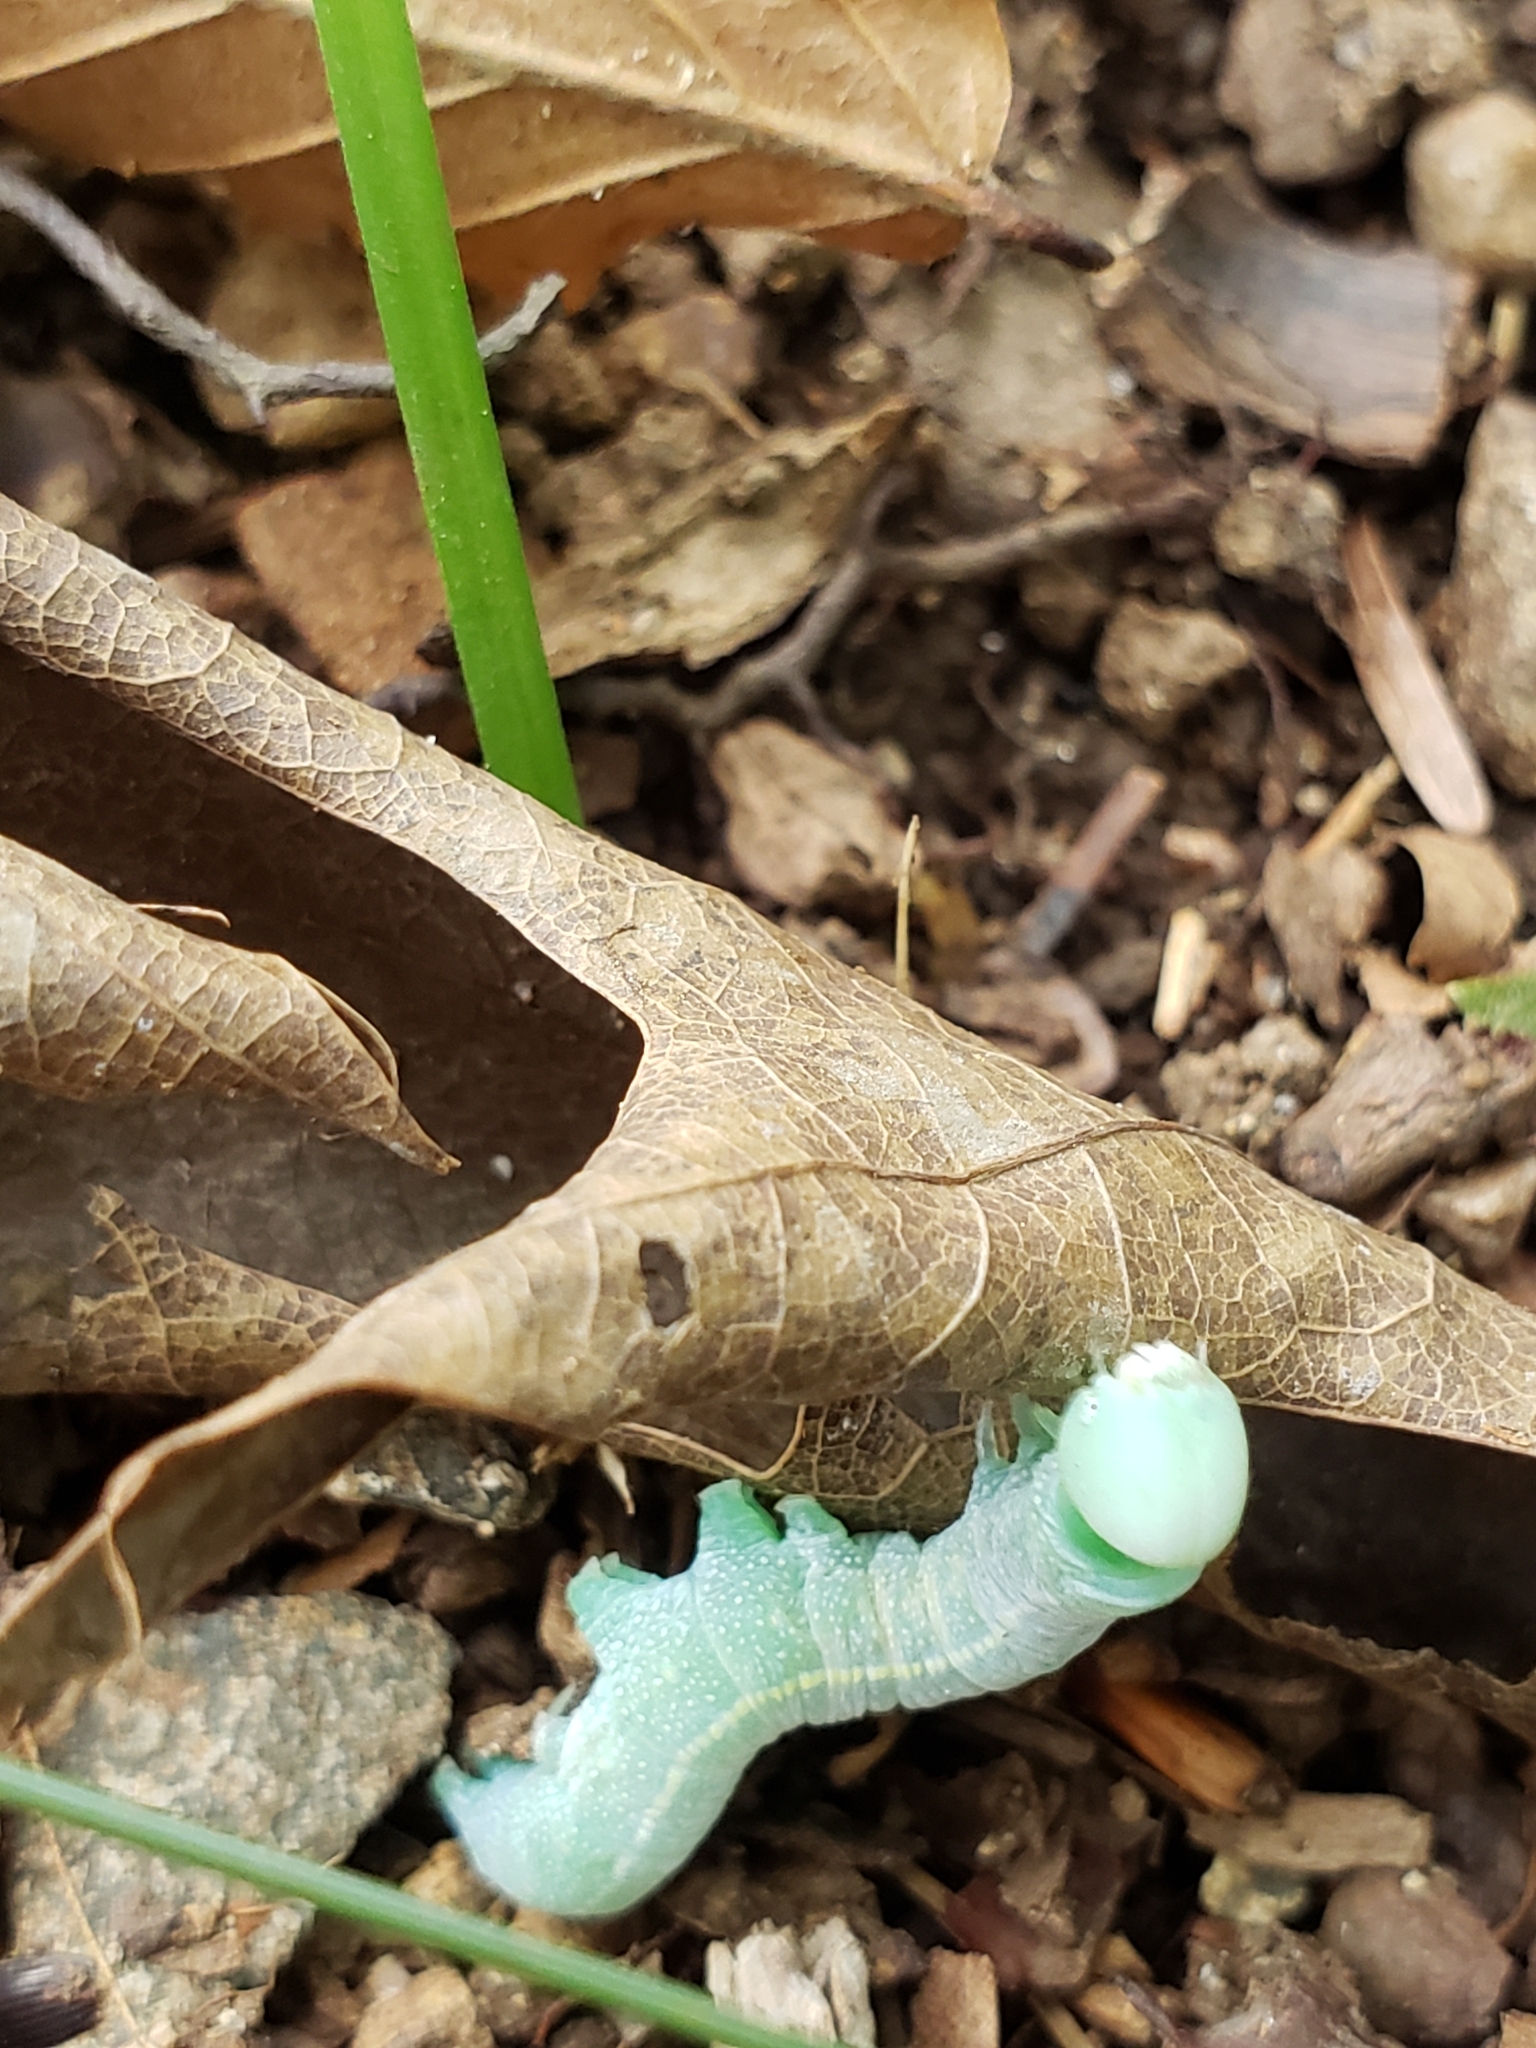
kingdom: Animalia
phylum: Arthropoda
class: Insecta
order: Lepidoptera
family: Notodontidae
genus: Nadata
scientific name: Nadata gibbosa
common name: White-dotted prominent
